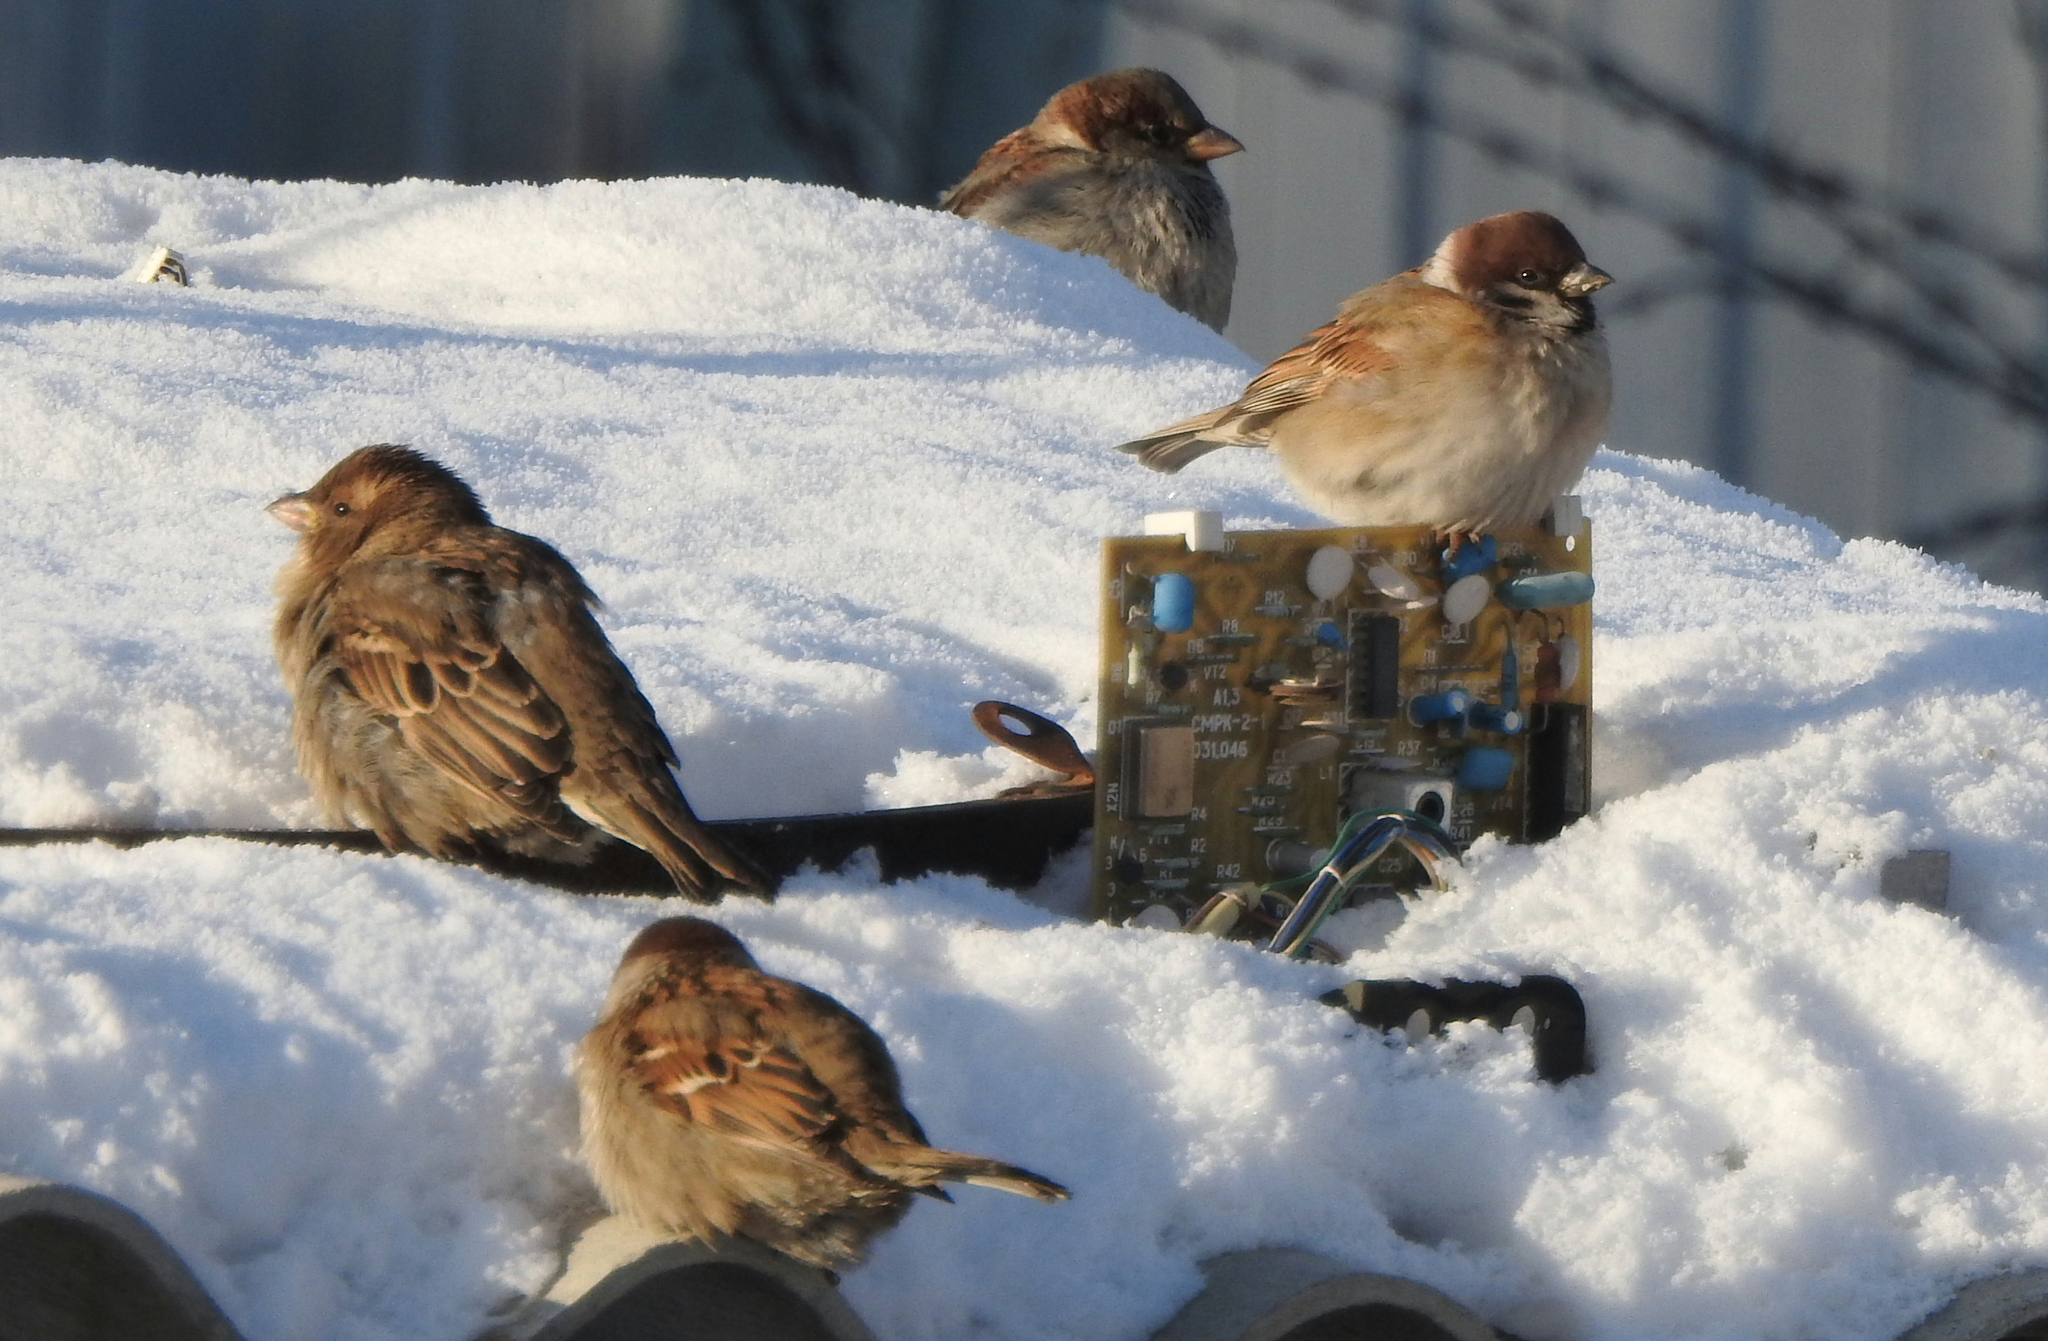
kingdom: Animalia
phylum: Chordata
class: Aves
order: Passeriformes
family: Passeridae
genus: Passer
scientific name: Passer montanus
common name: Eurasian tree sparrow
